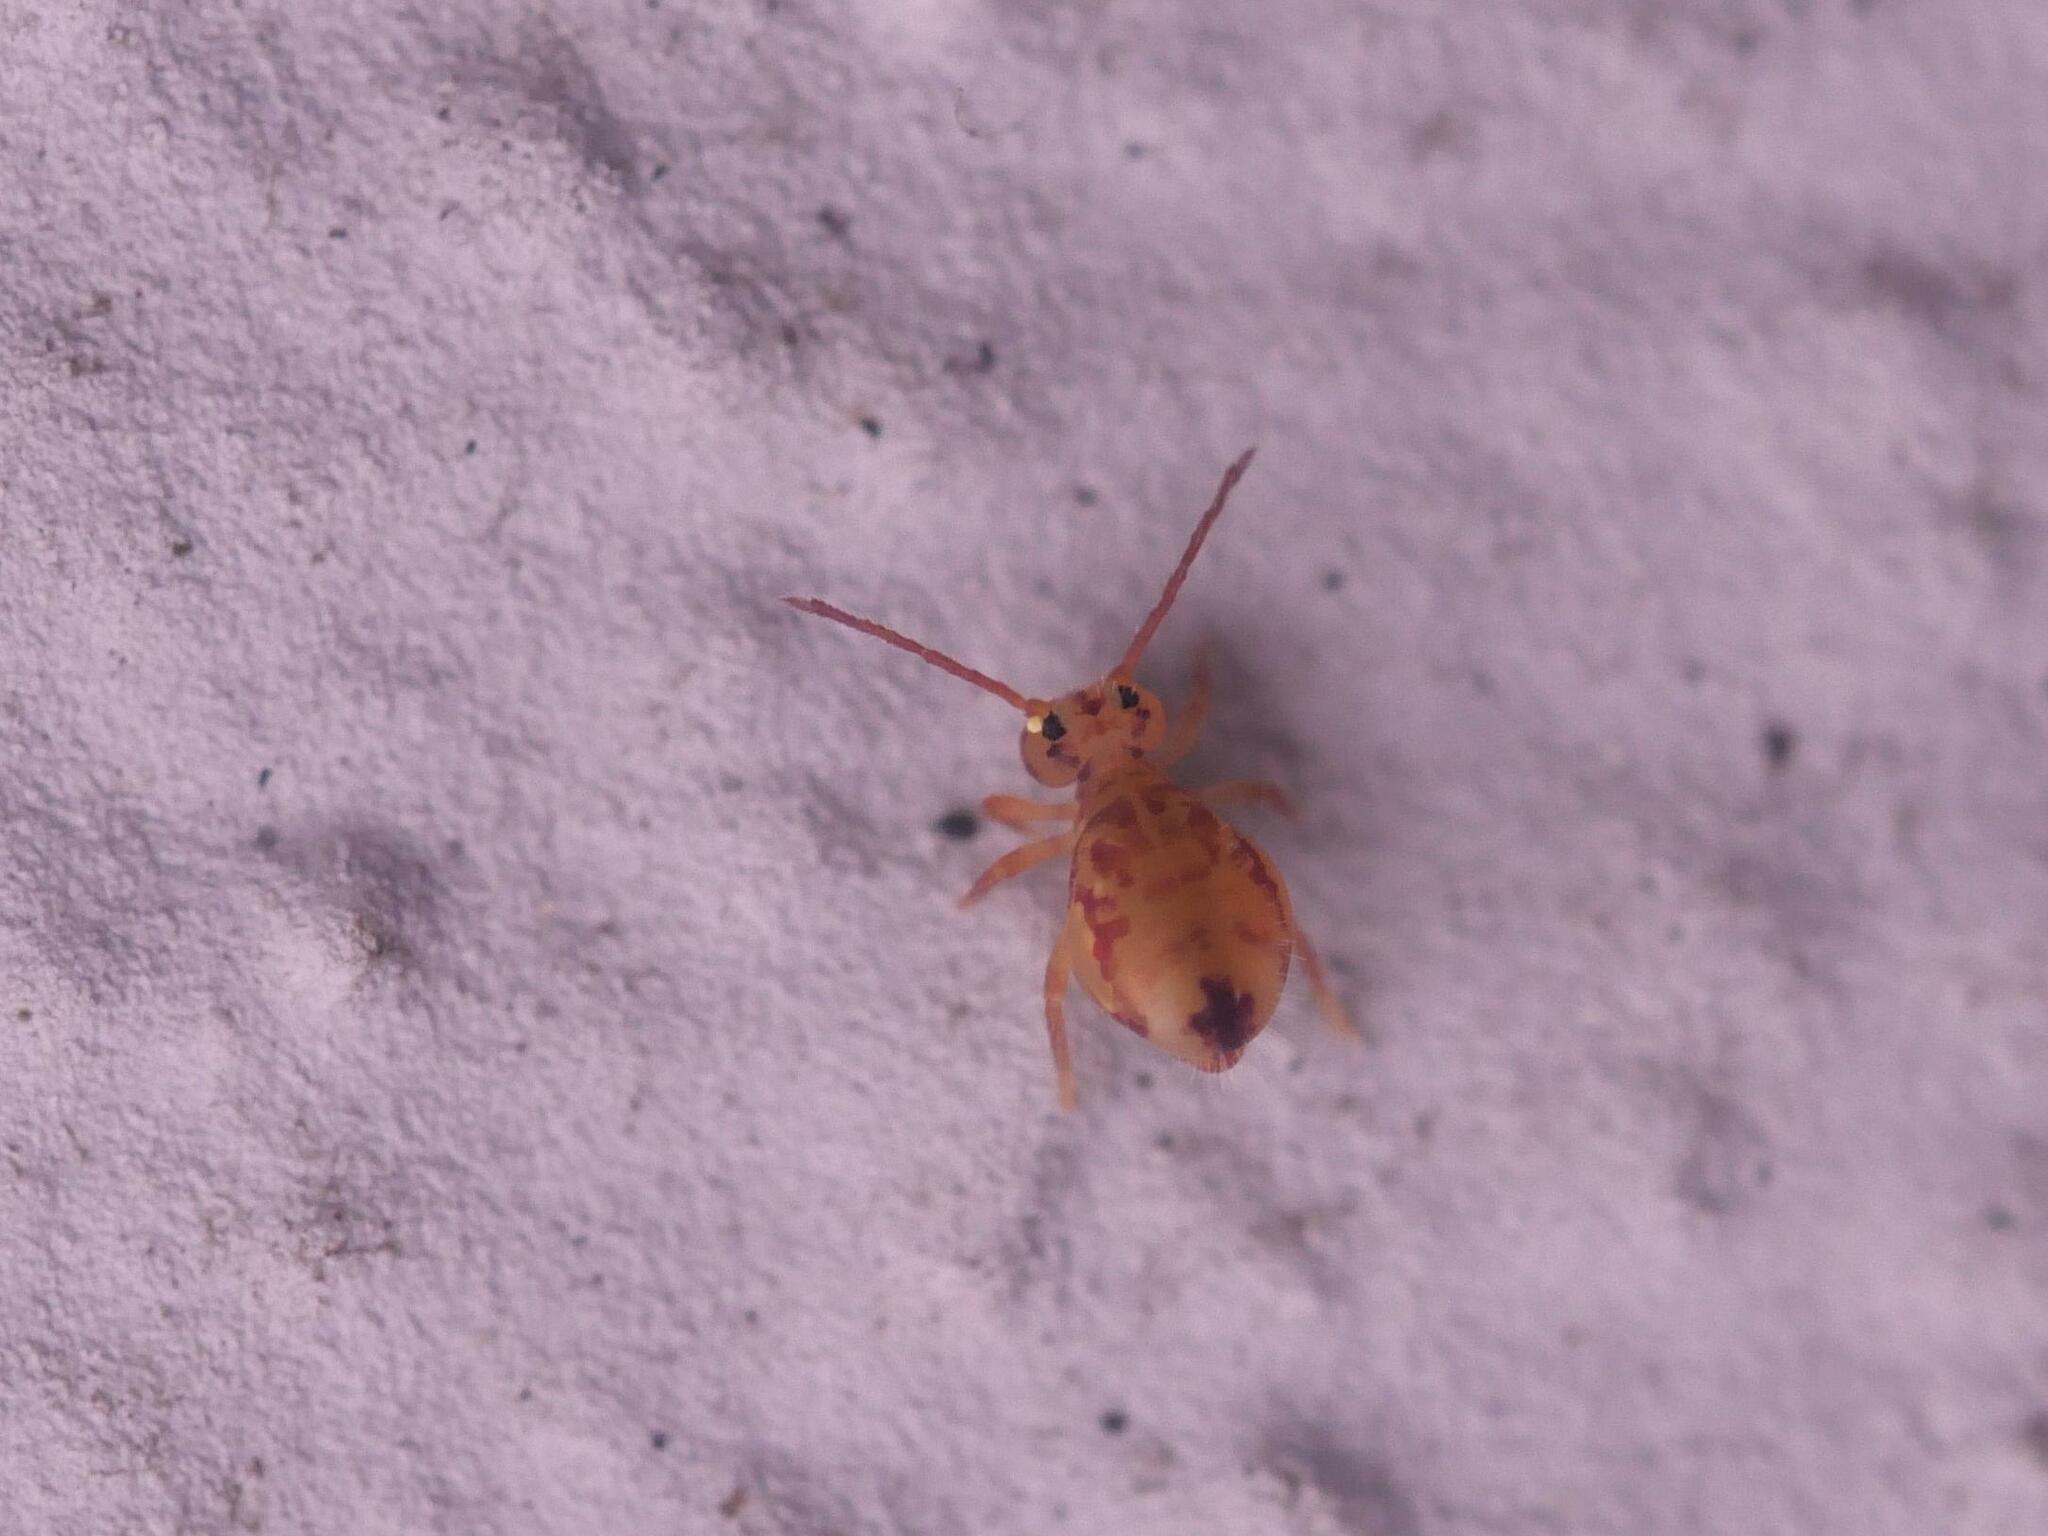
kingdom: Animalia
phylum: Arthropoda
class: Collembola
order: Symphypleona
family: Dicyrtomidae
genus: Dicyrtomina
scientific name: Dicyrtomina ornata
